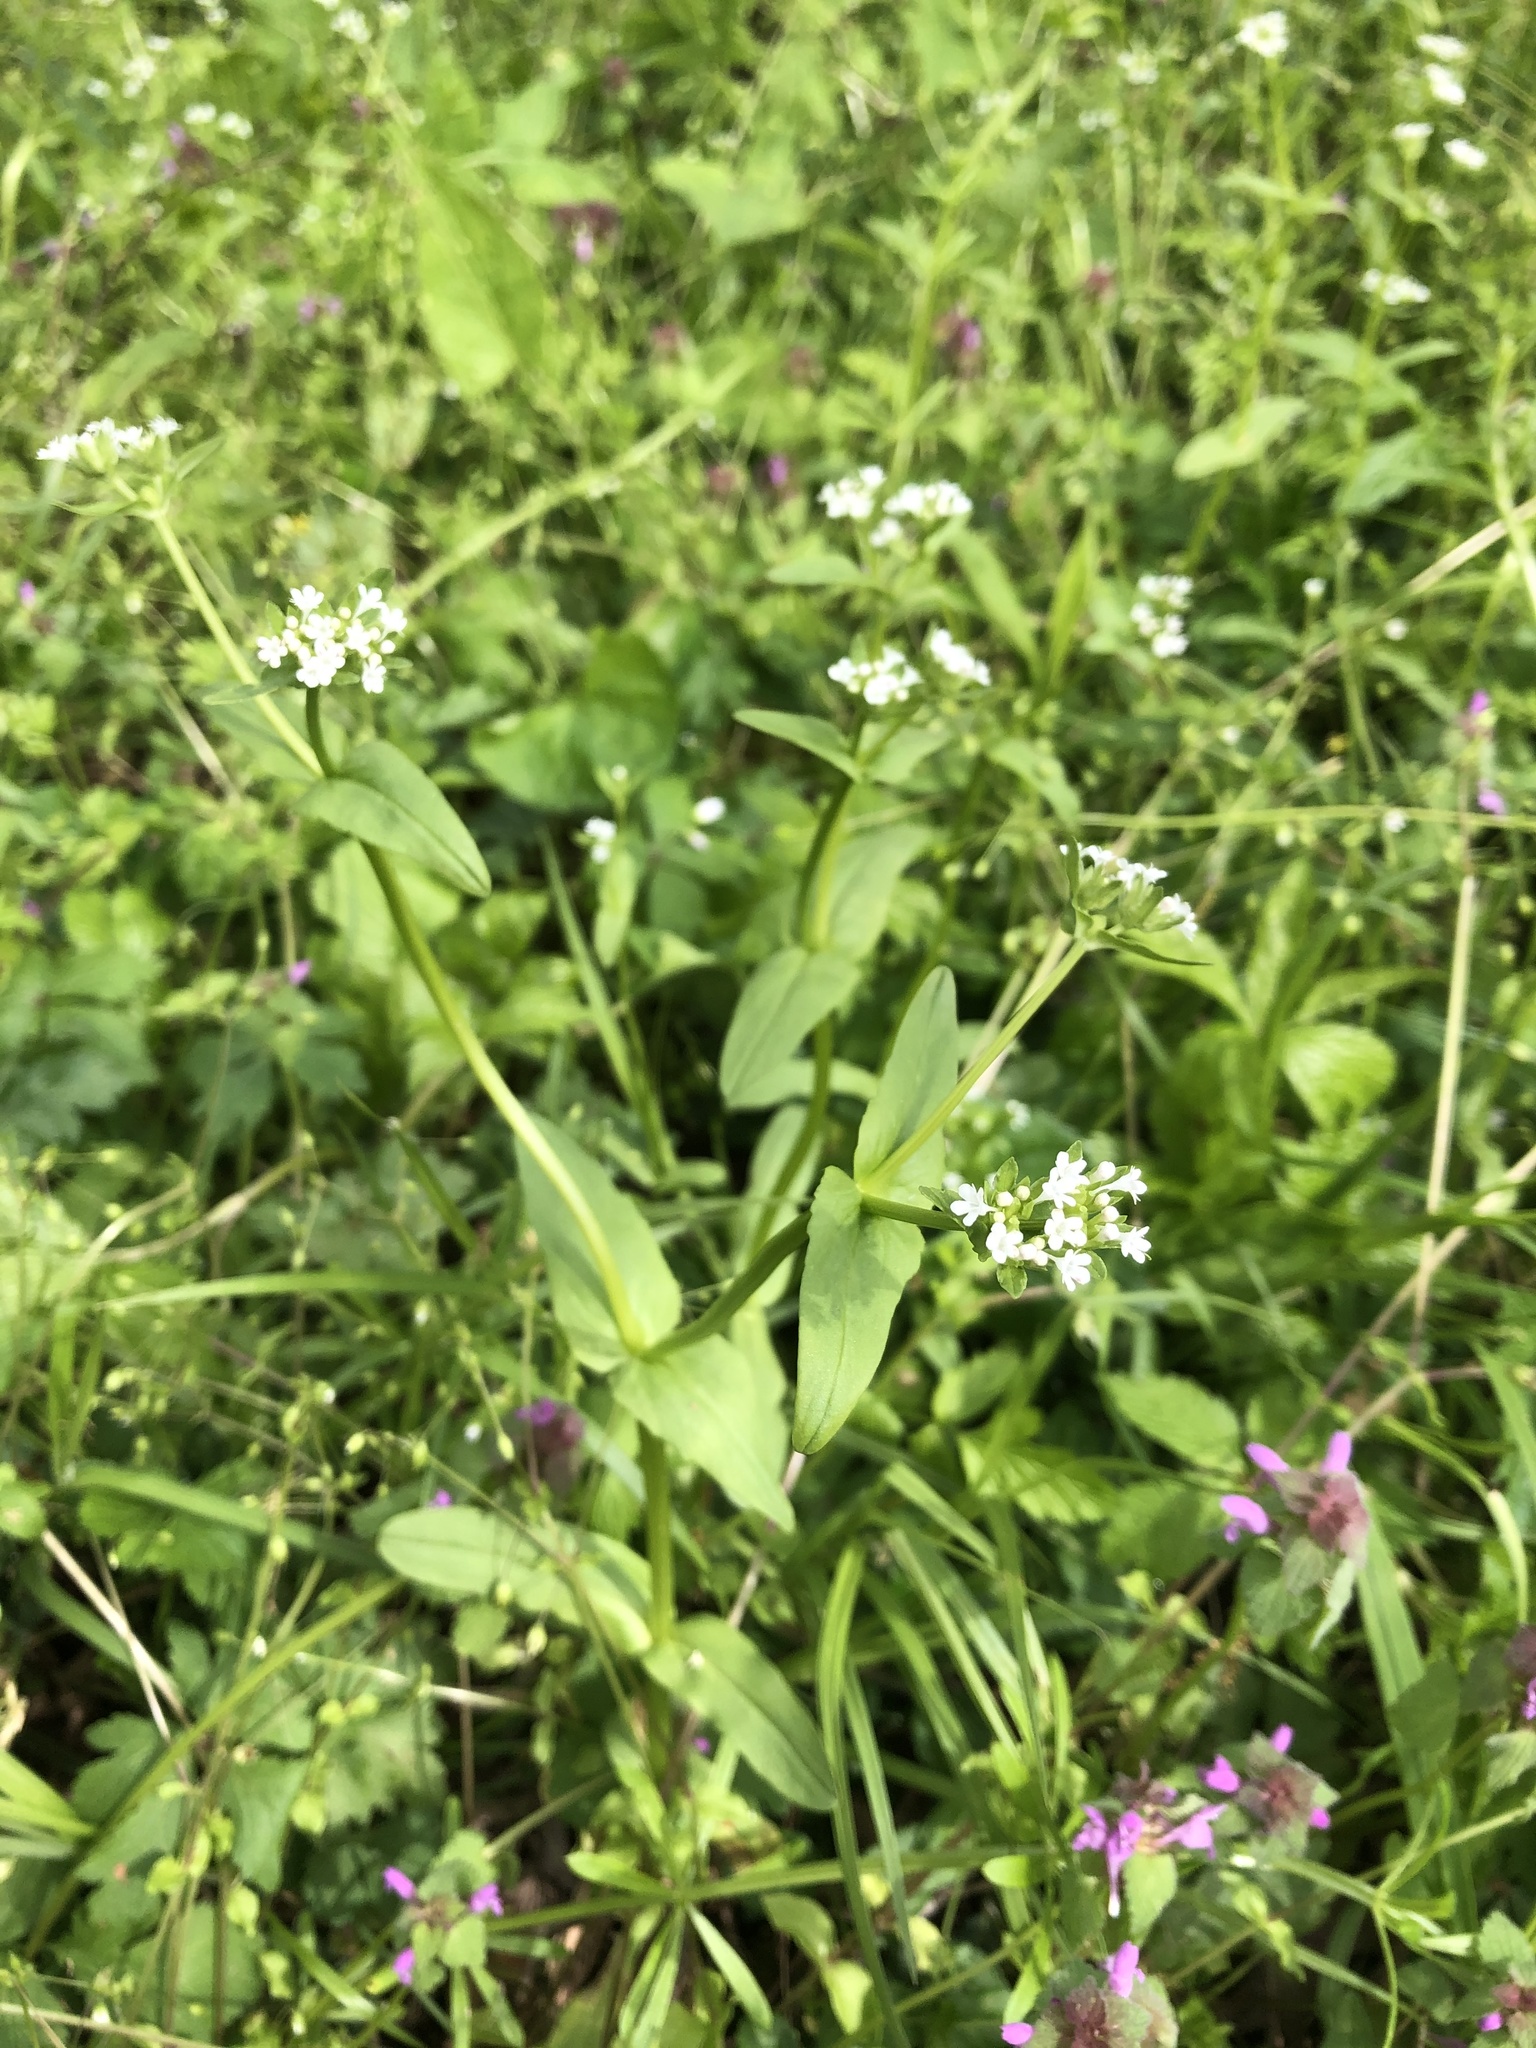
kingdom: Plantae
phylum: Tracheophyta
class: Magnoliopsida
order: Dipsacales
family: Caprifoliaceae
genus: Valerianella
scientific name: Valerianella radiata
